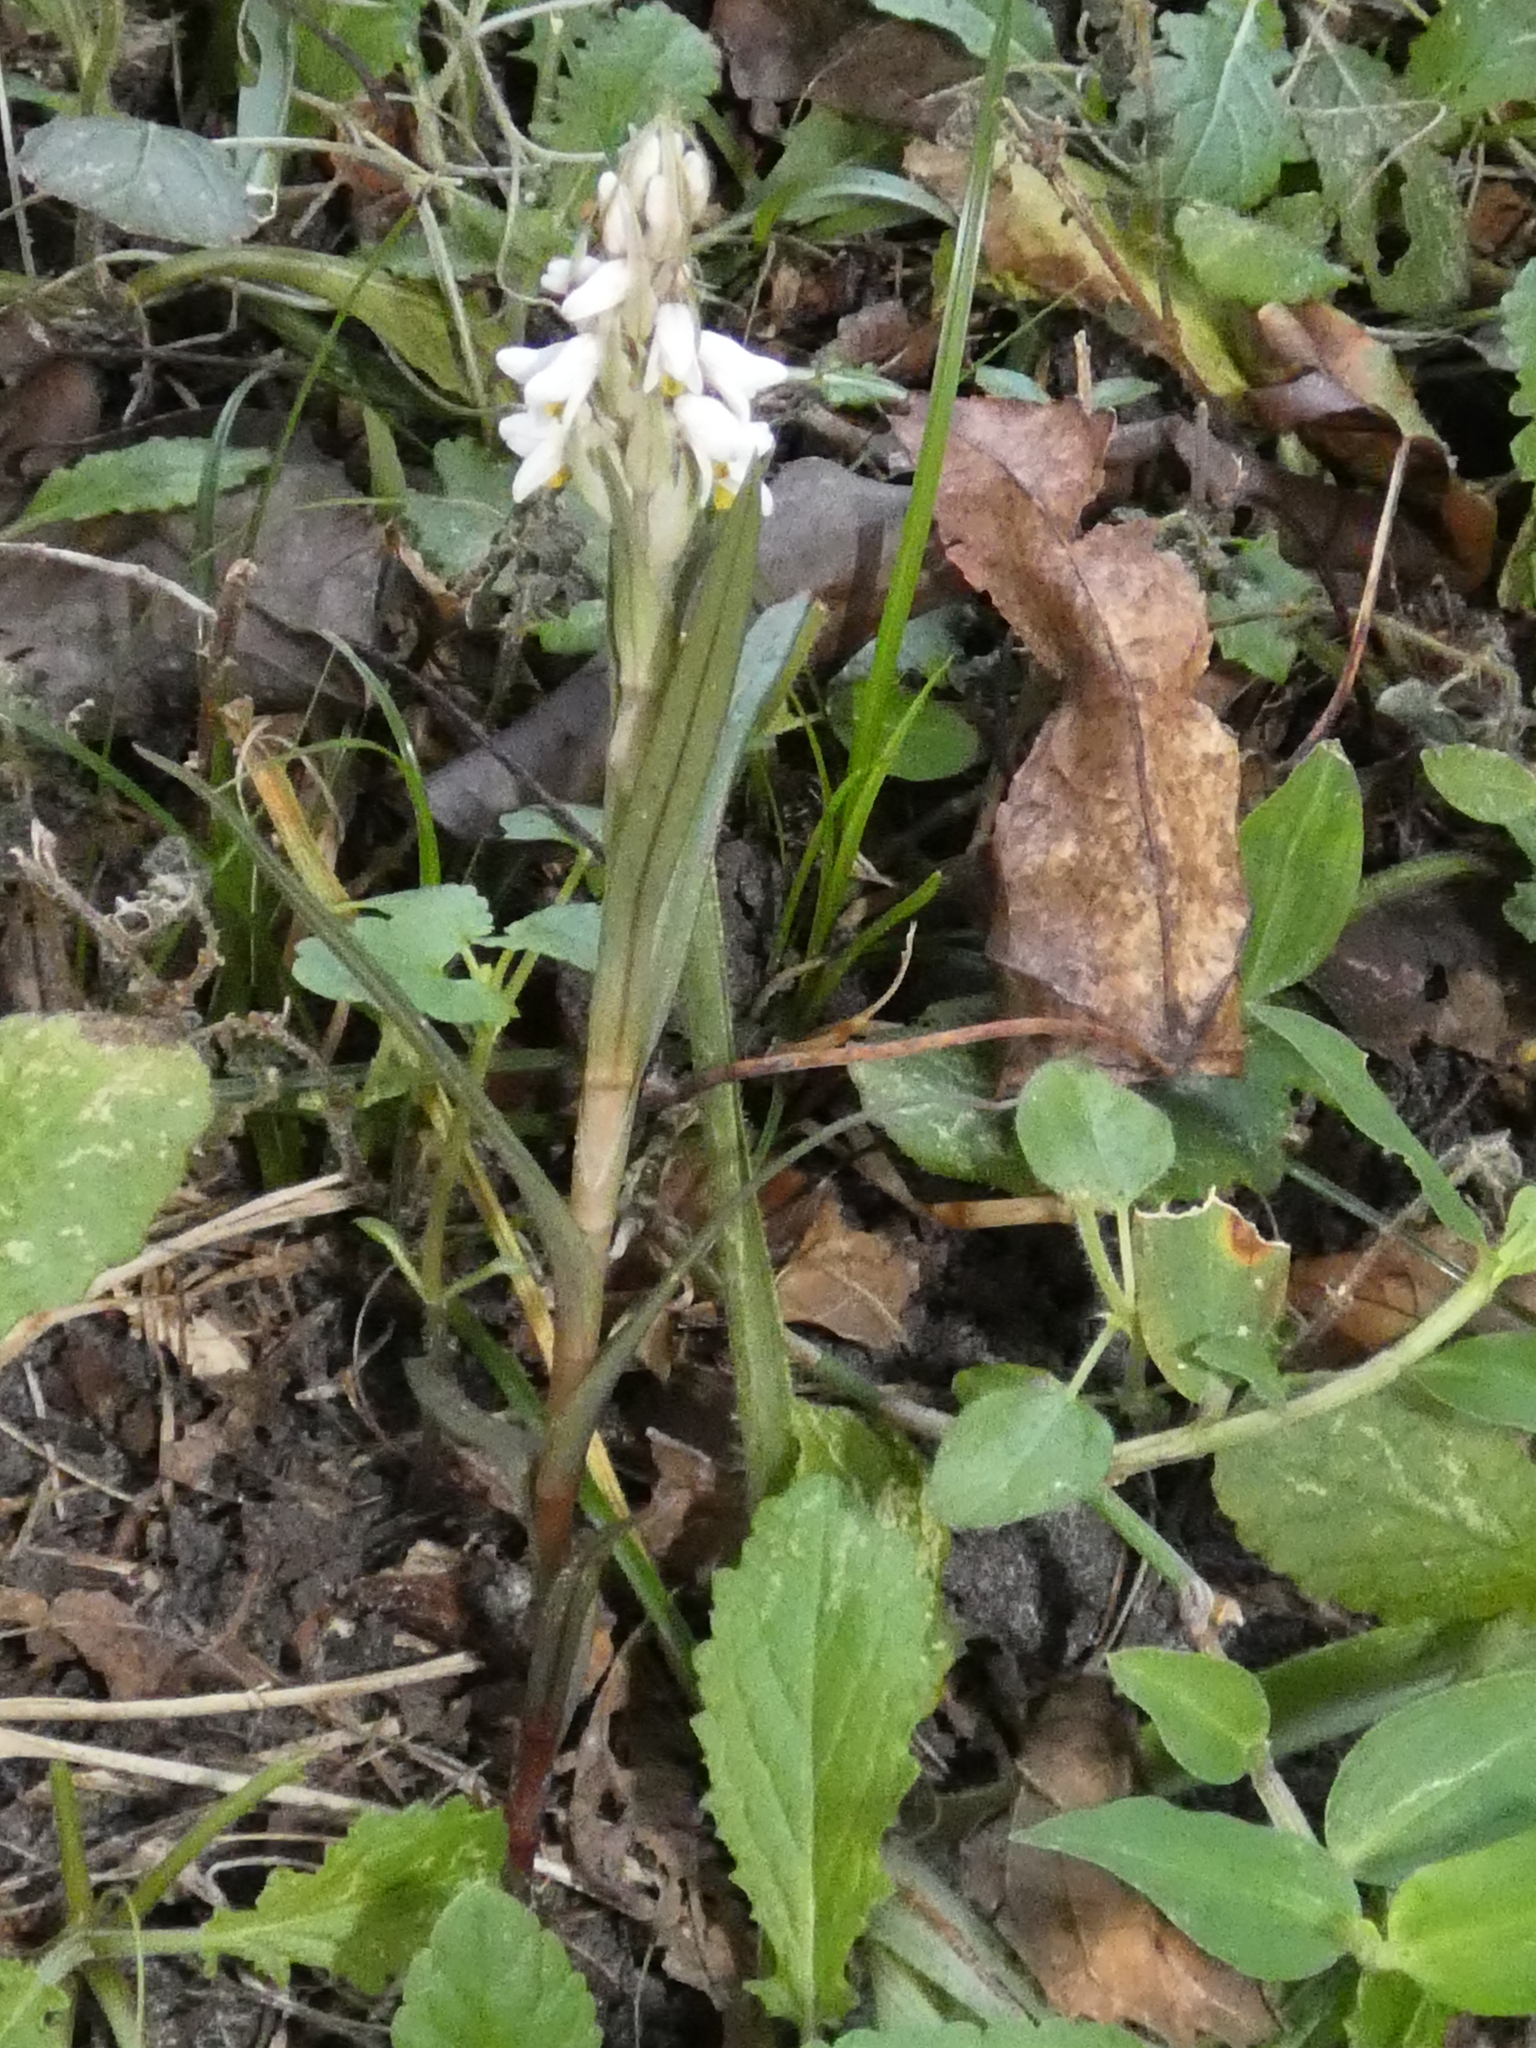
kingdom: Plantae
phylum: Tracheophyta
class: Liliopsida
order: Asparagales
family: Orchidaceae
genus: Zeuxine
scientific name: Zeuxine strateumatica
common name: Soldier's orchid
